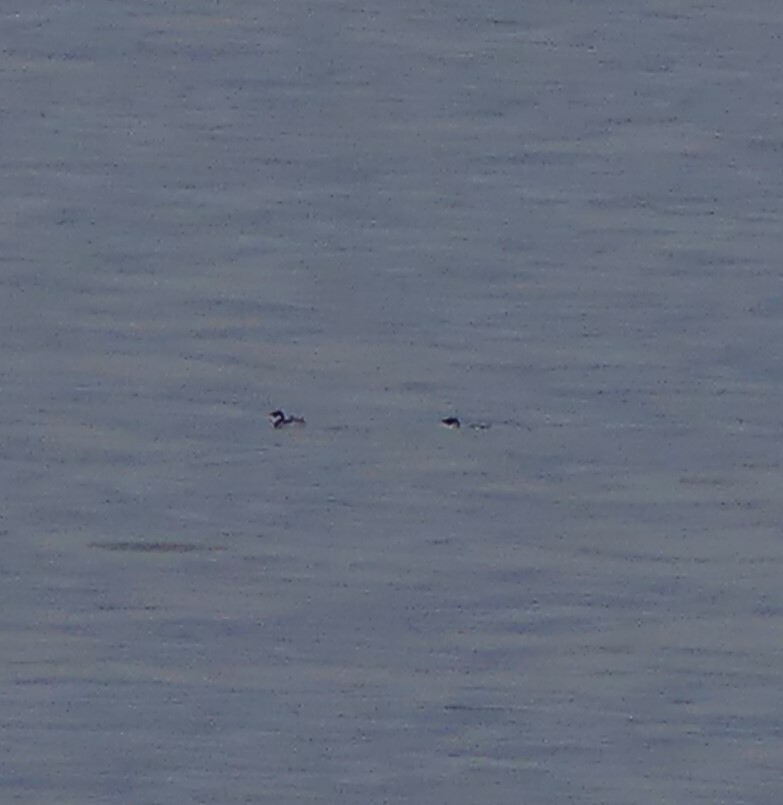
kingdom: Animalia
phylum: Chordata
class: Aves
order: Charadriiformes
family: Alcidae
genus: Brachyramphus
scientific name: Brachyramphus marmoratus
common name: Marbled murrelet
